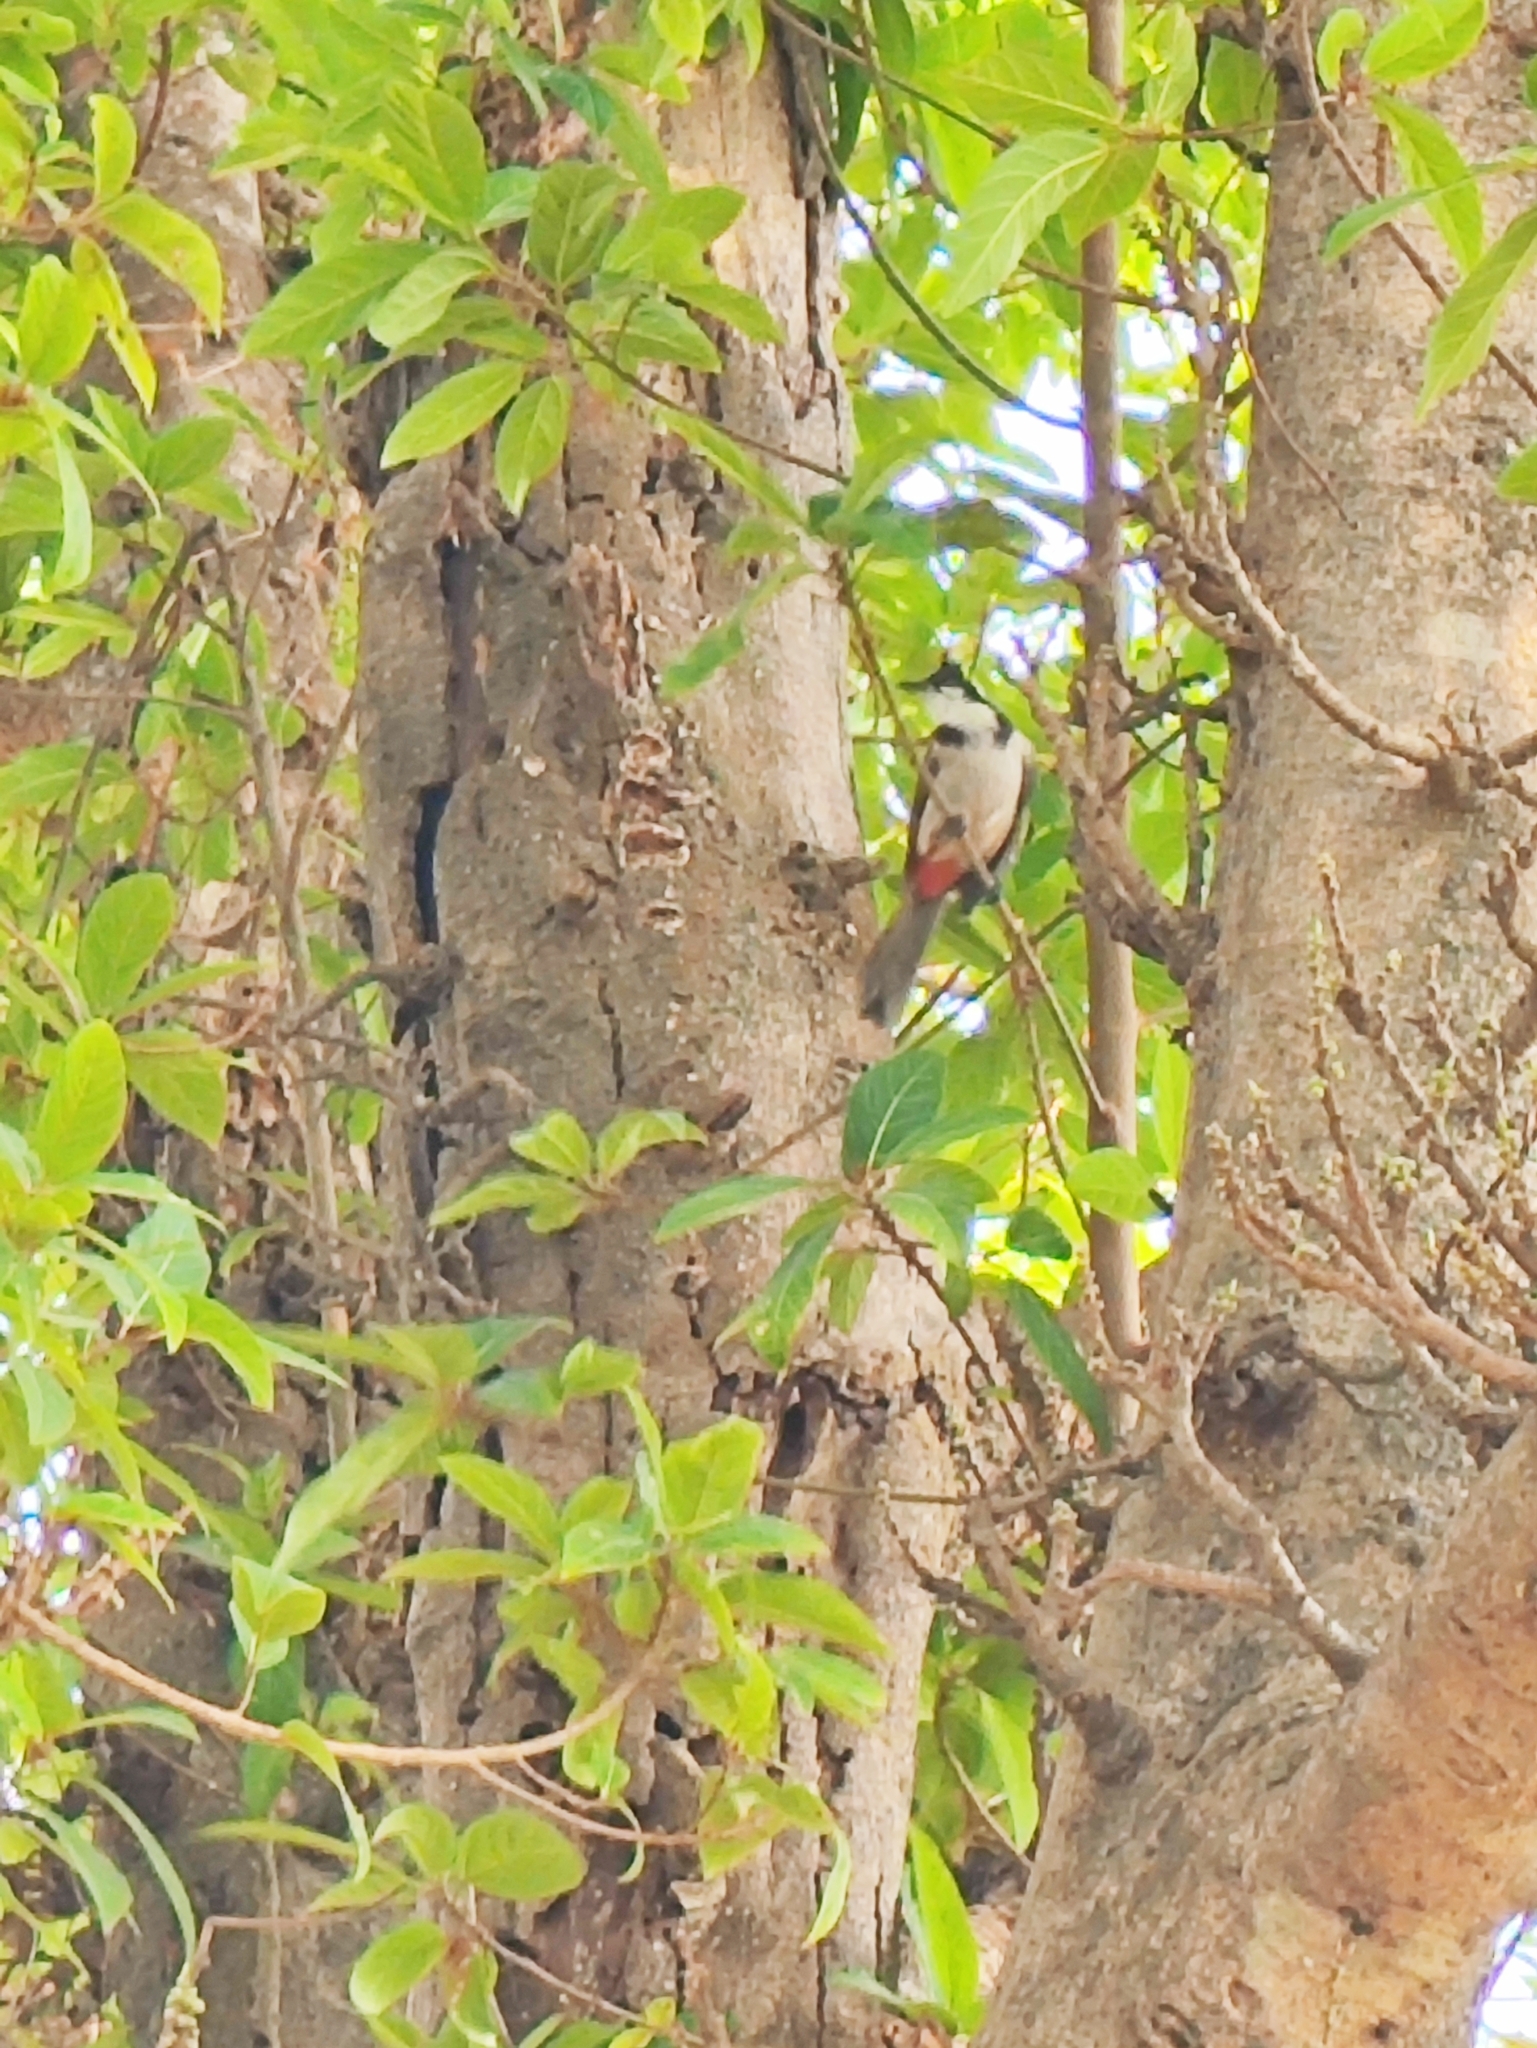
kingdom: Animalia
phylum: Chordata
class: Aves
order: Passeriformes
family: Pycnonotidae
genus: Pycnonotus
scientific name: Pycnonotus jocosus
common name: Red-whiskered bulbul
